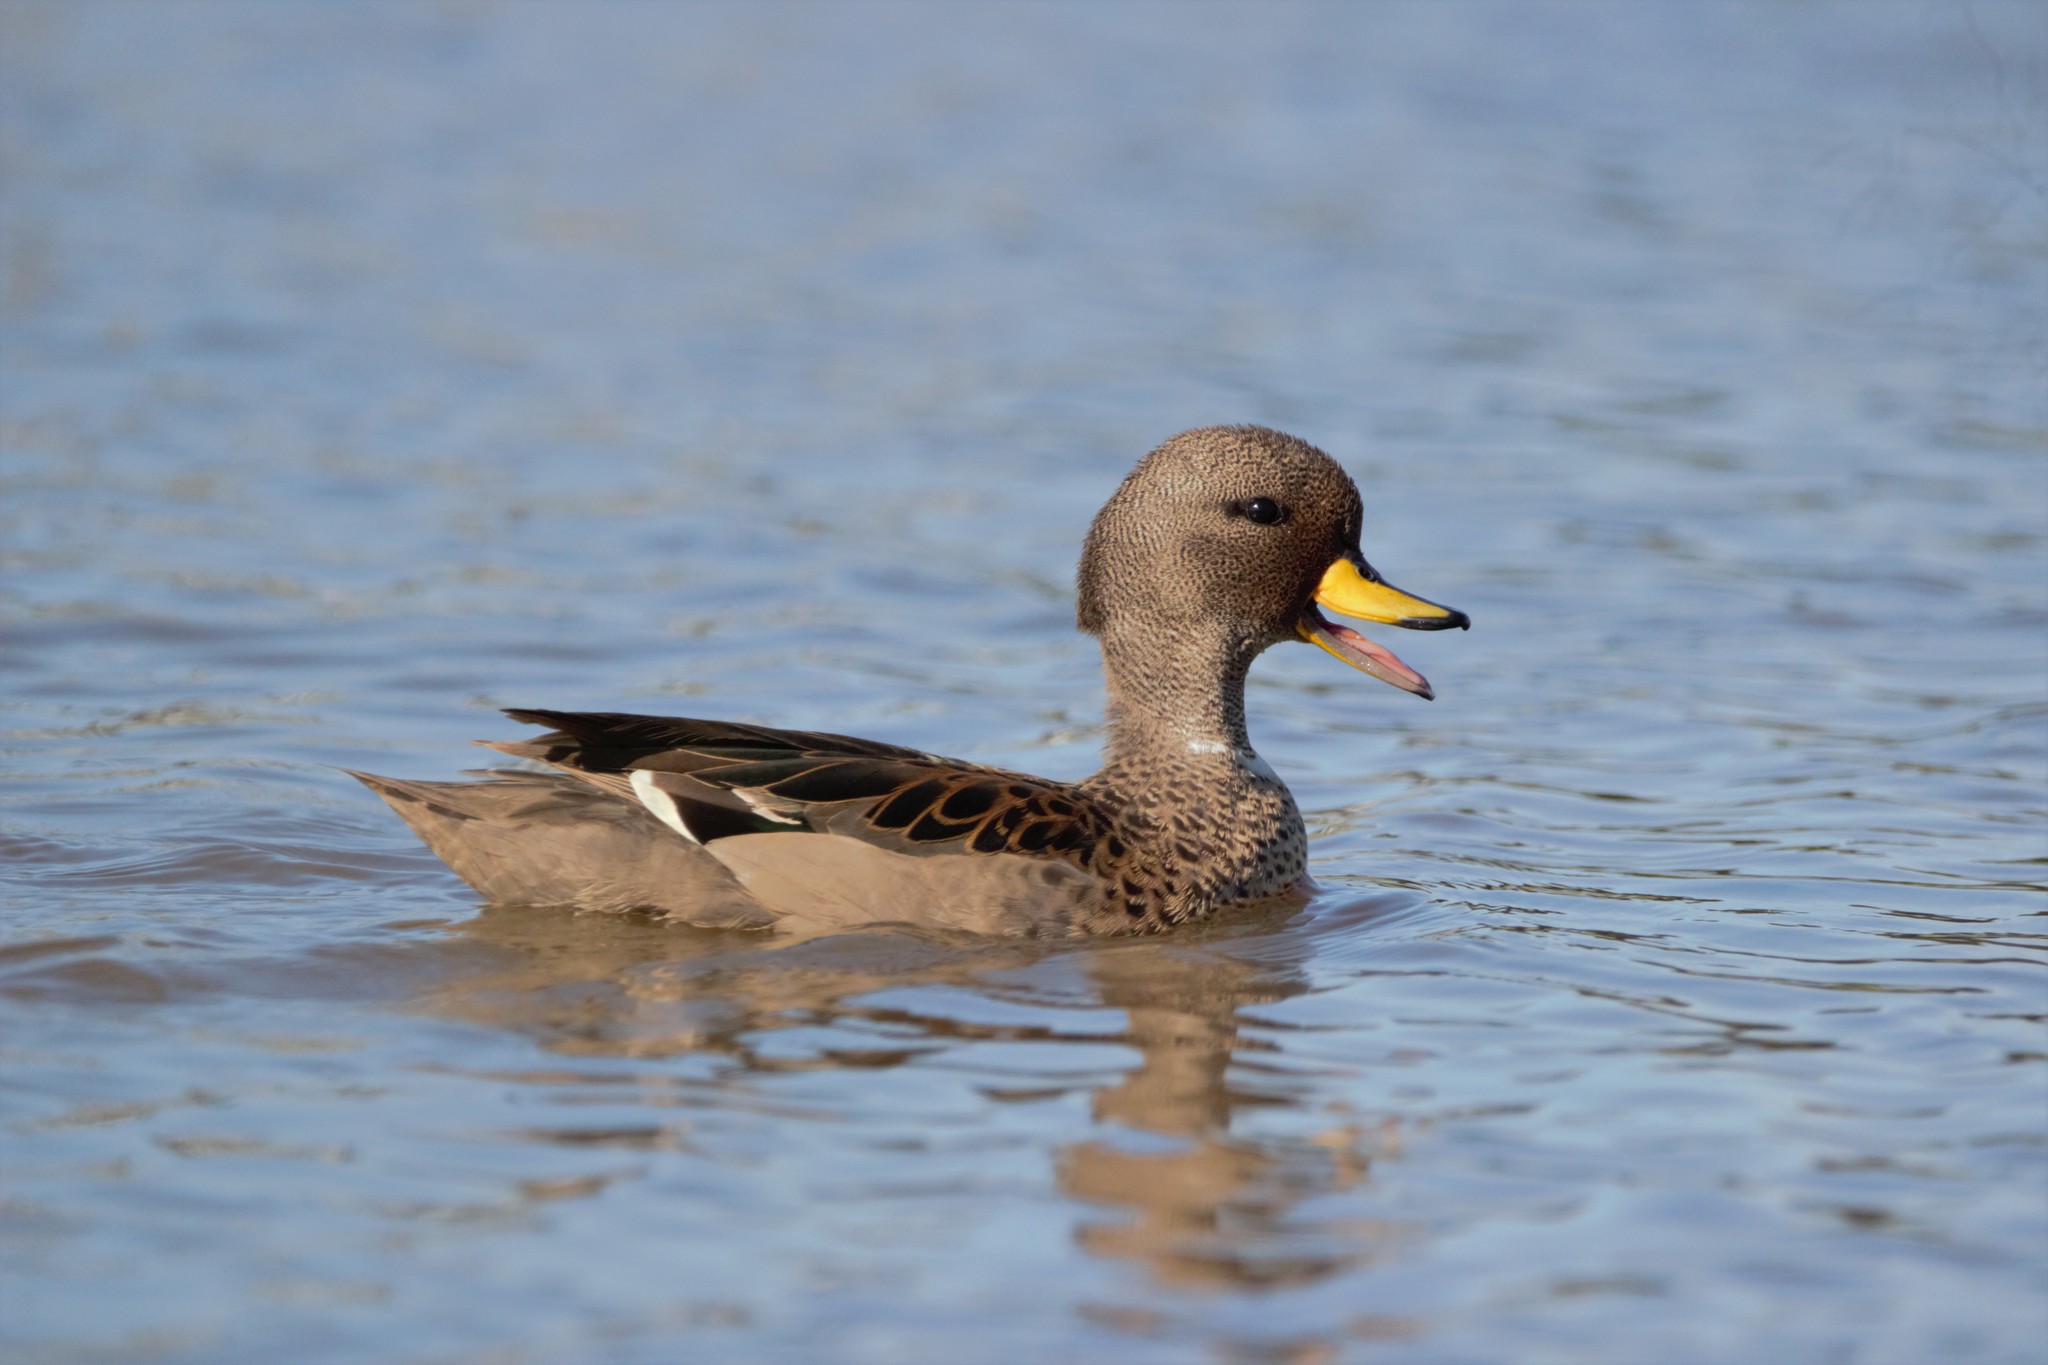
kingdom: Animalia
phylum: Chordata
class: Aves
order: Anseriformes
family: Anatidae
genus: Anas
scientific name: Anas flavirostris
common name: Yellow-billed teal
